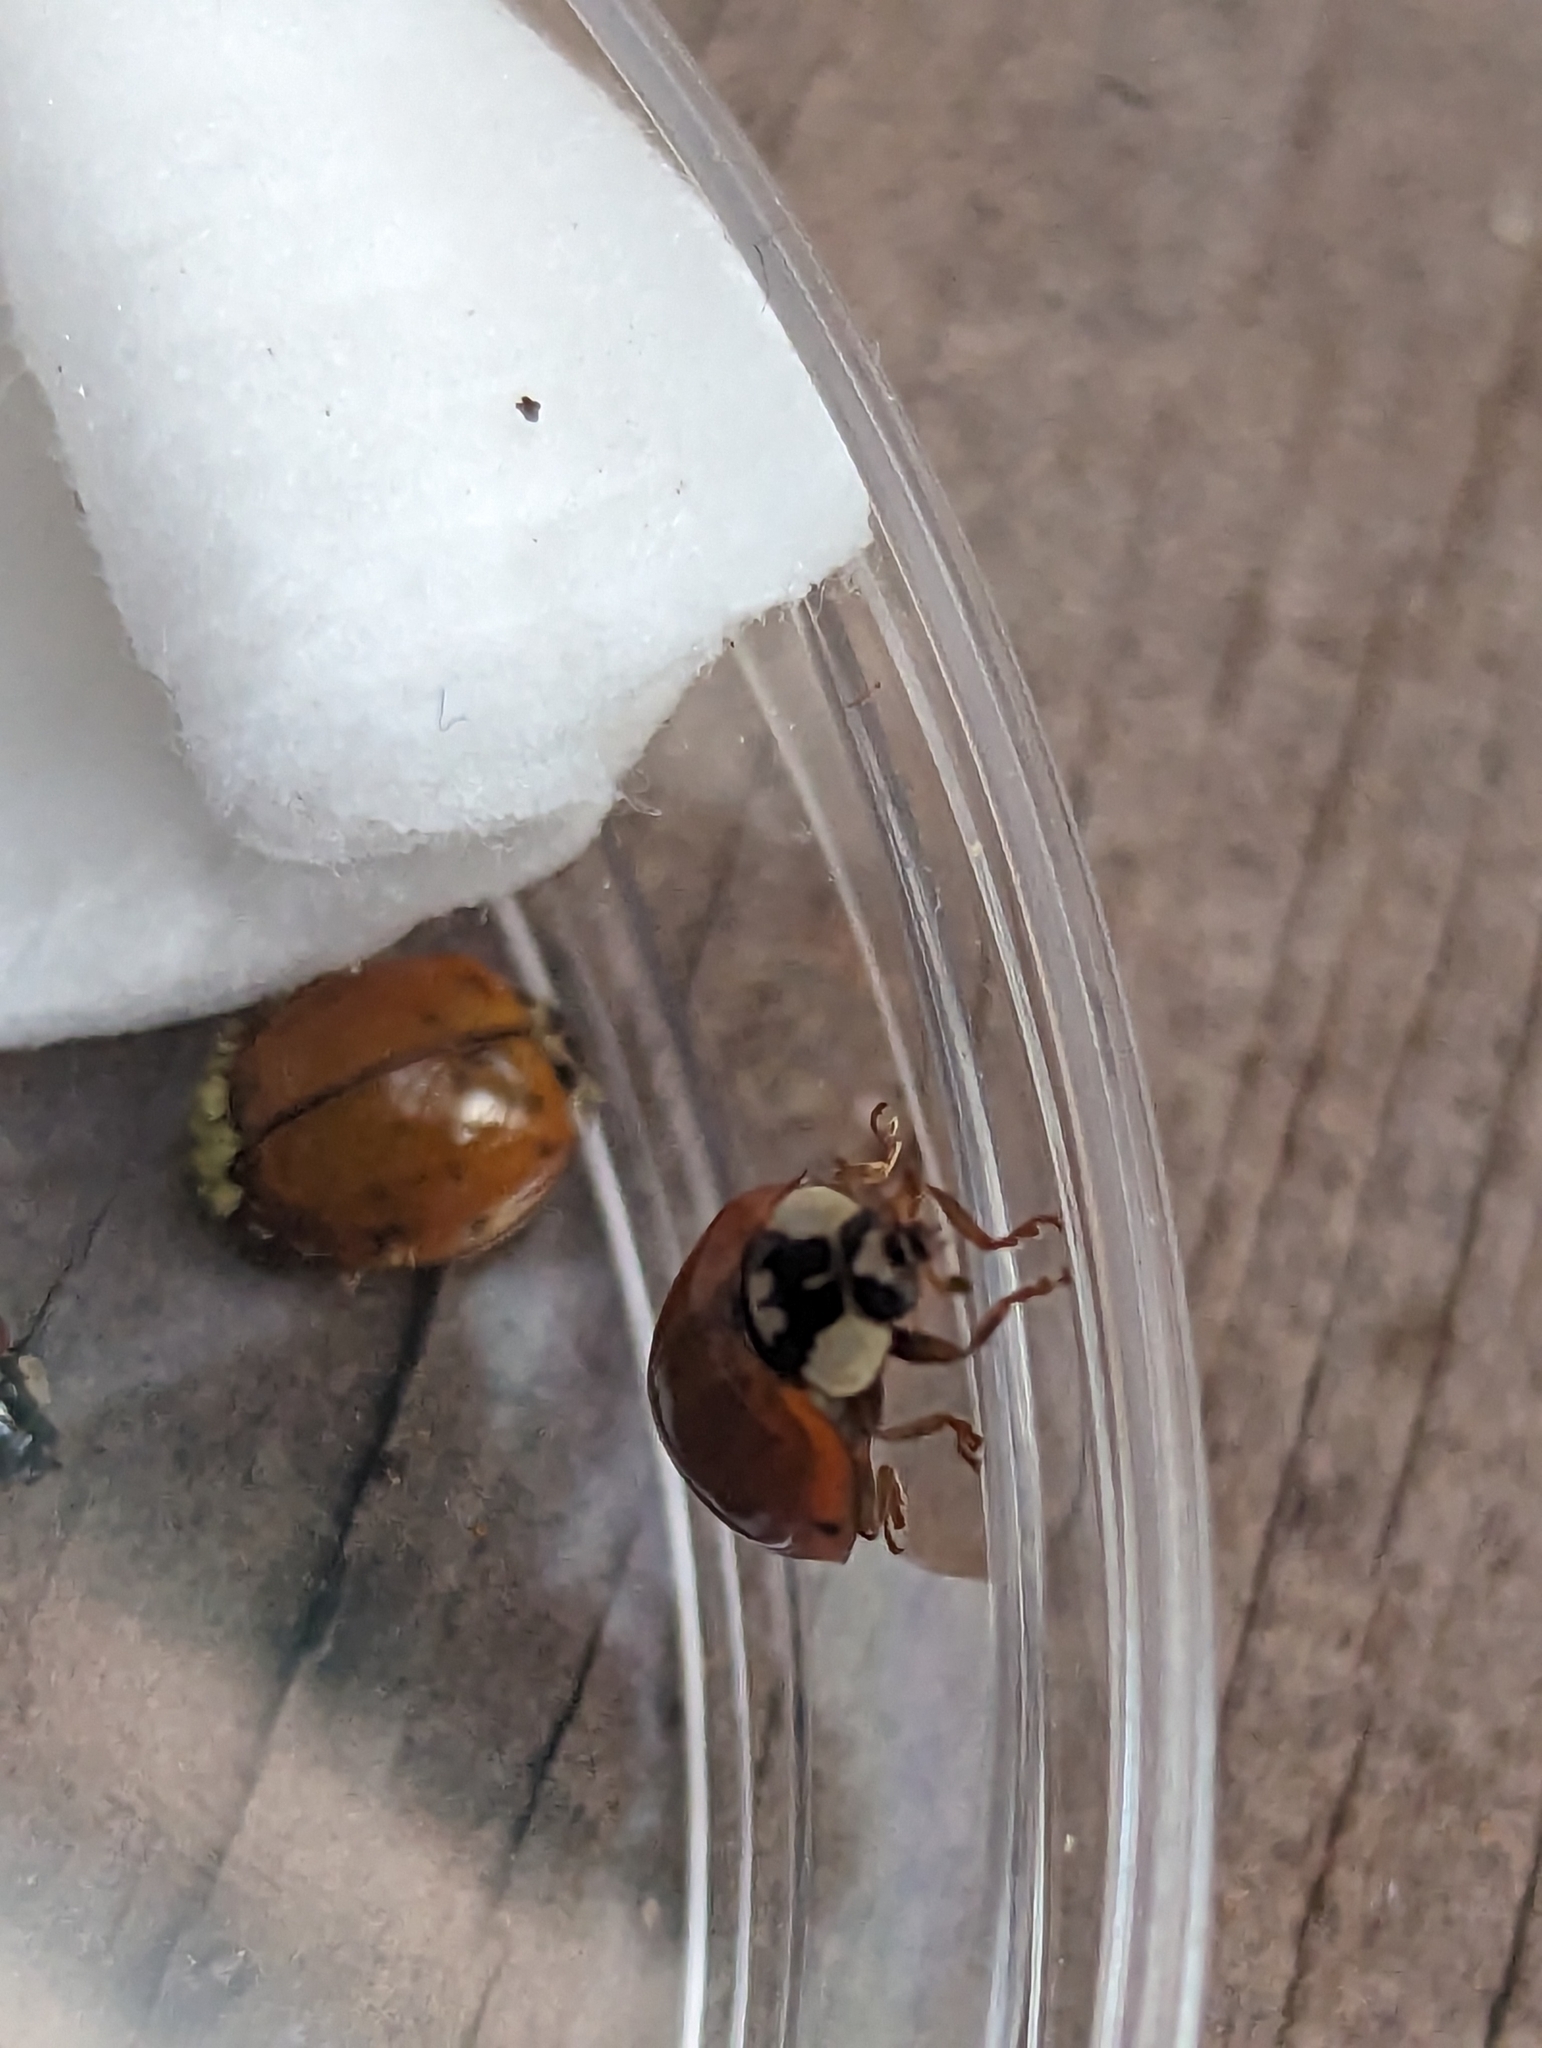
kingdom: Animalia
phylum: Arthropoda
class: Insecta
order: Coleoptera
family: Coccinellidae
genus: Harmonia
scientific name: Harmonia axyridis
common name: Harlequin ladybird
